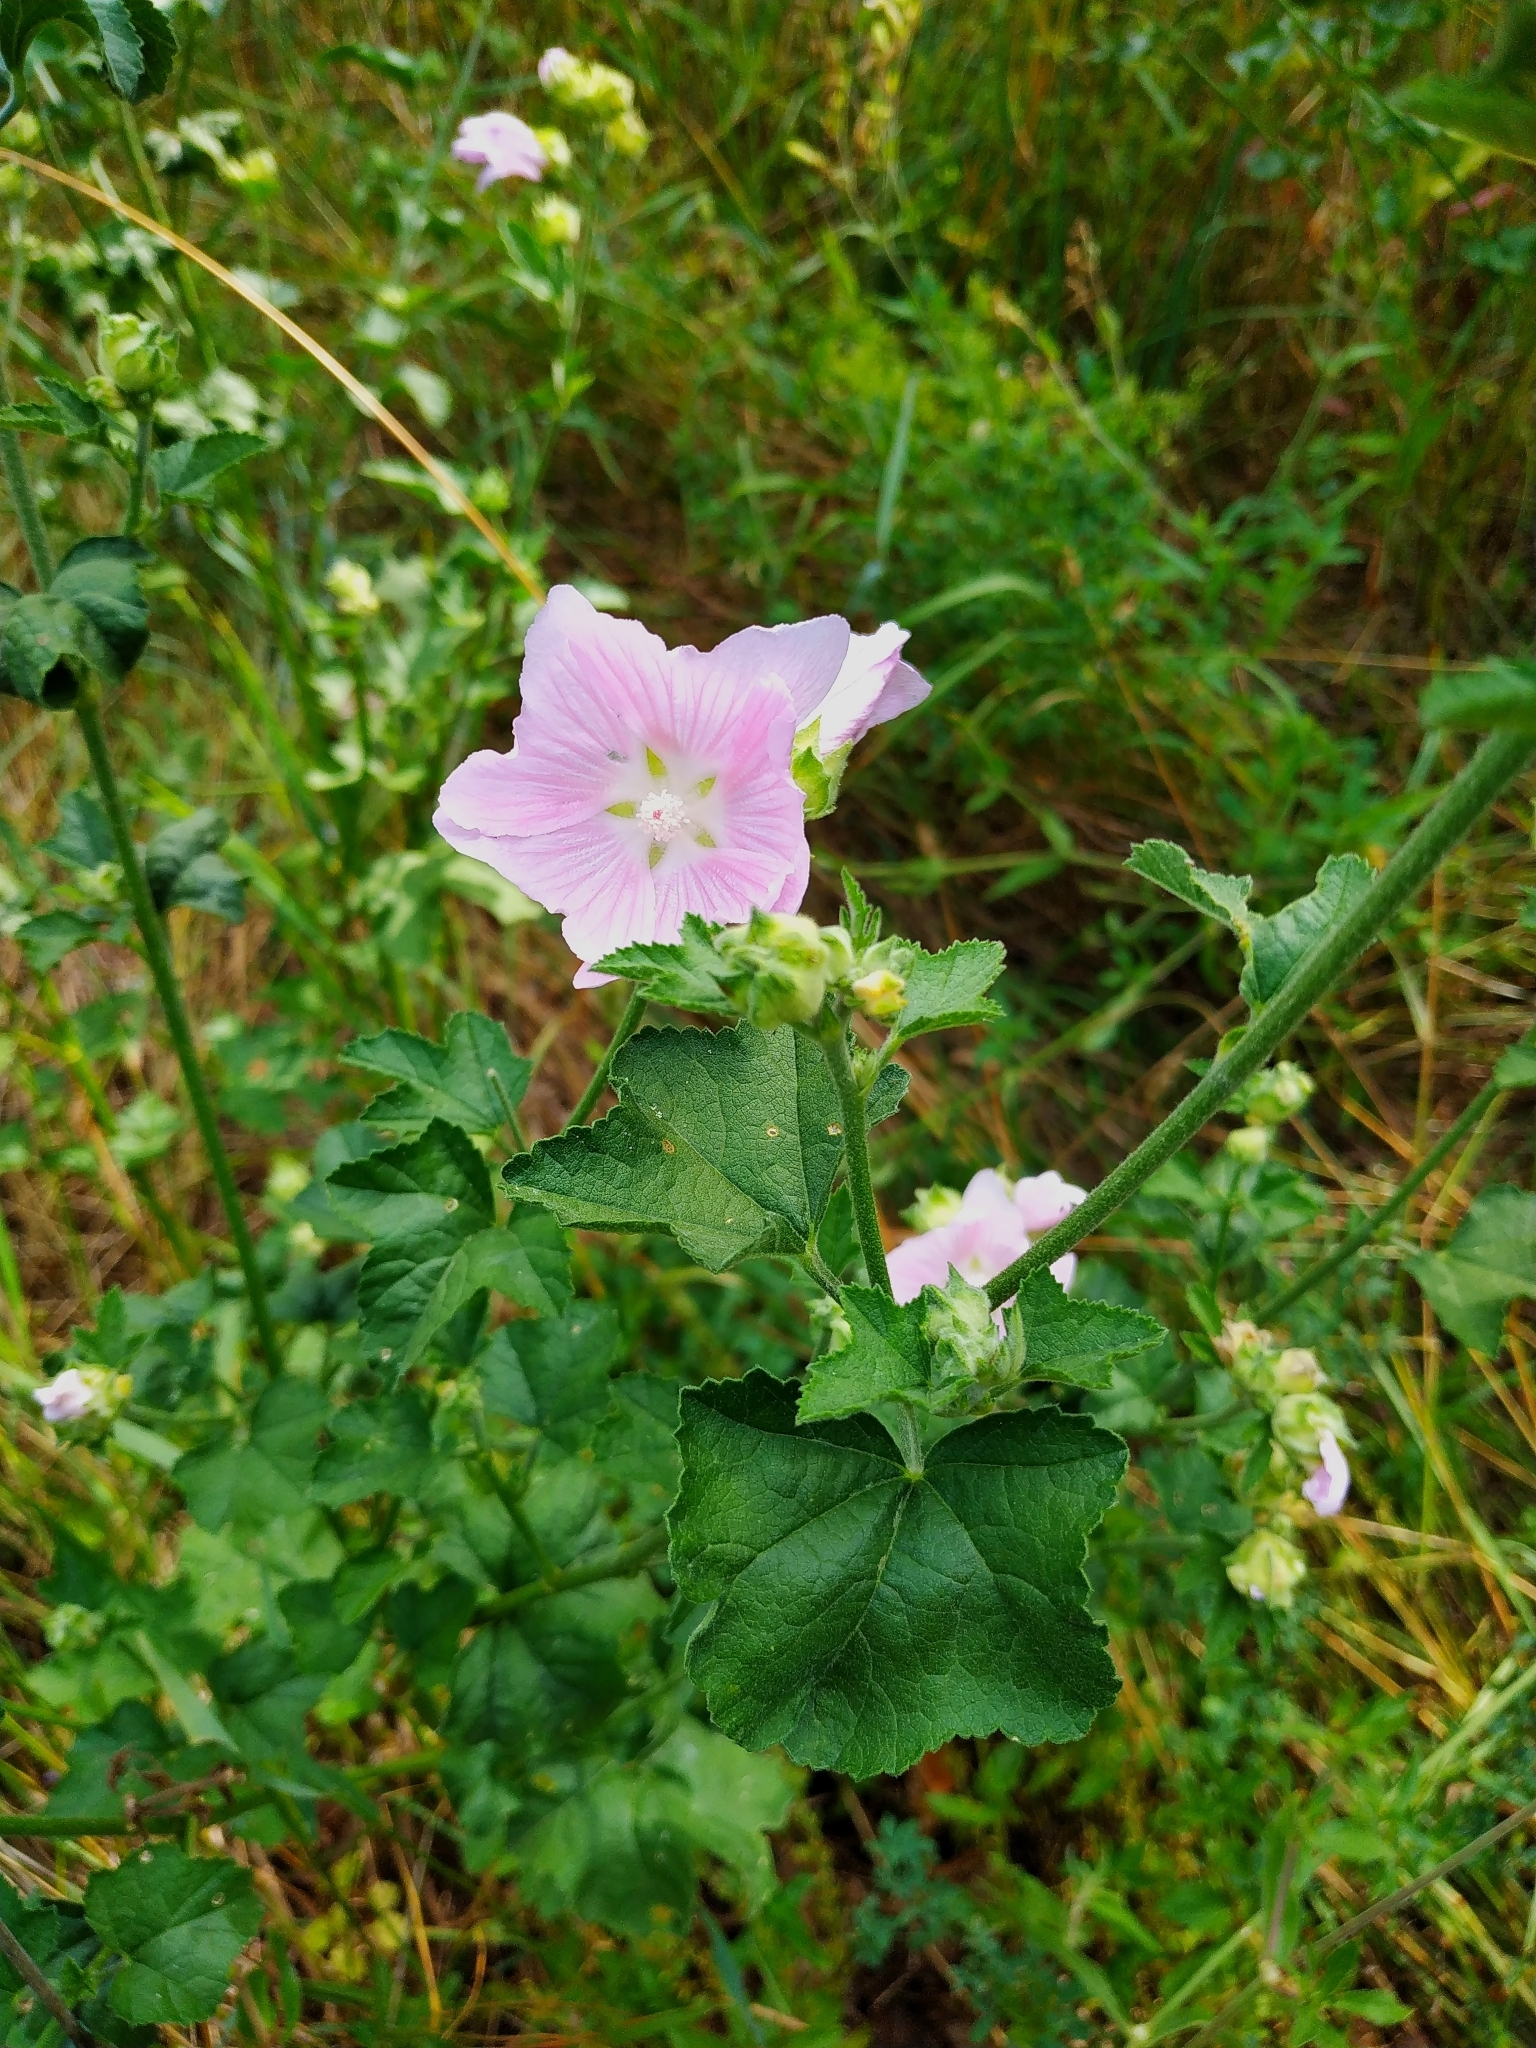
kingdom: Plantae
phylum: Tracheophyta
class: Magnoliopsida
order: Malvales
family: Malvaceae
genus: Malva
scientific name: Malva thuringiaca
